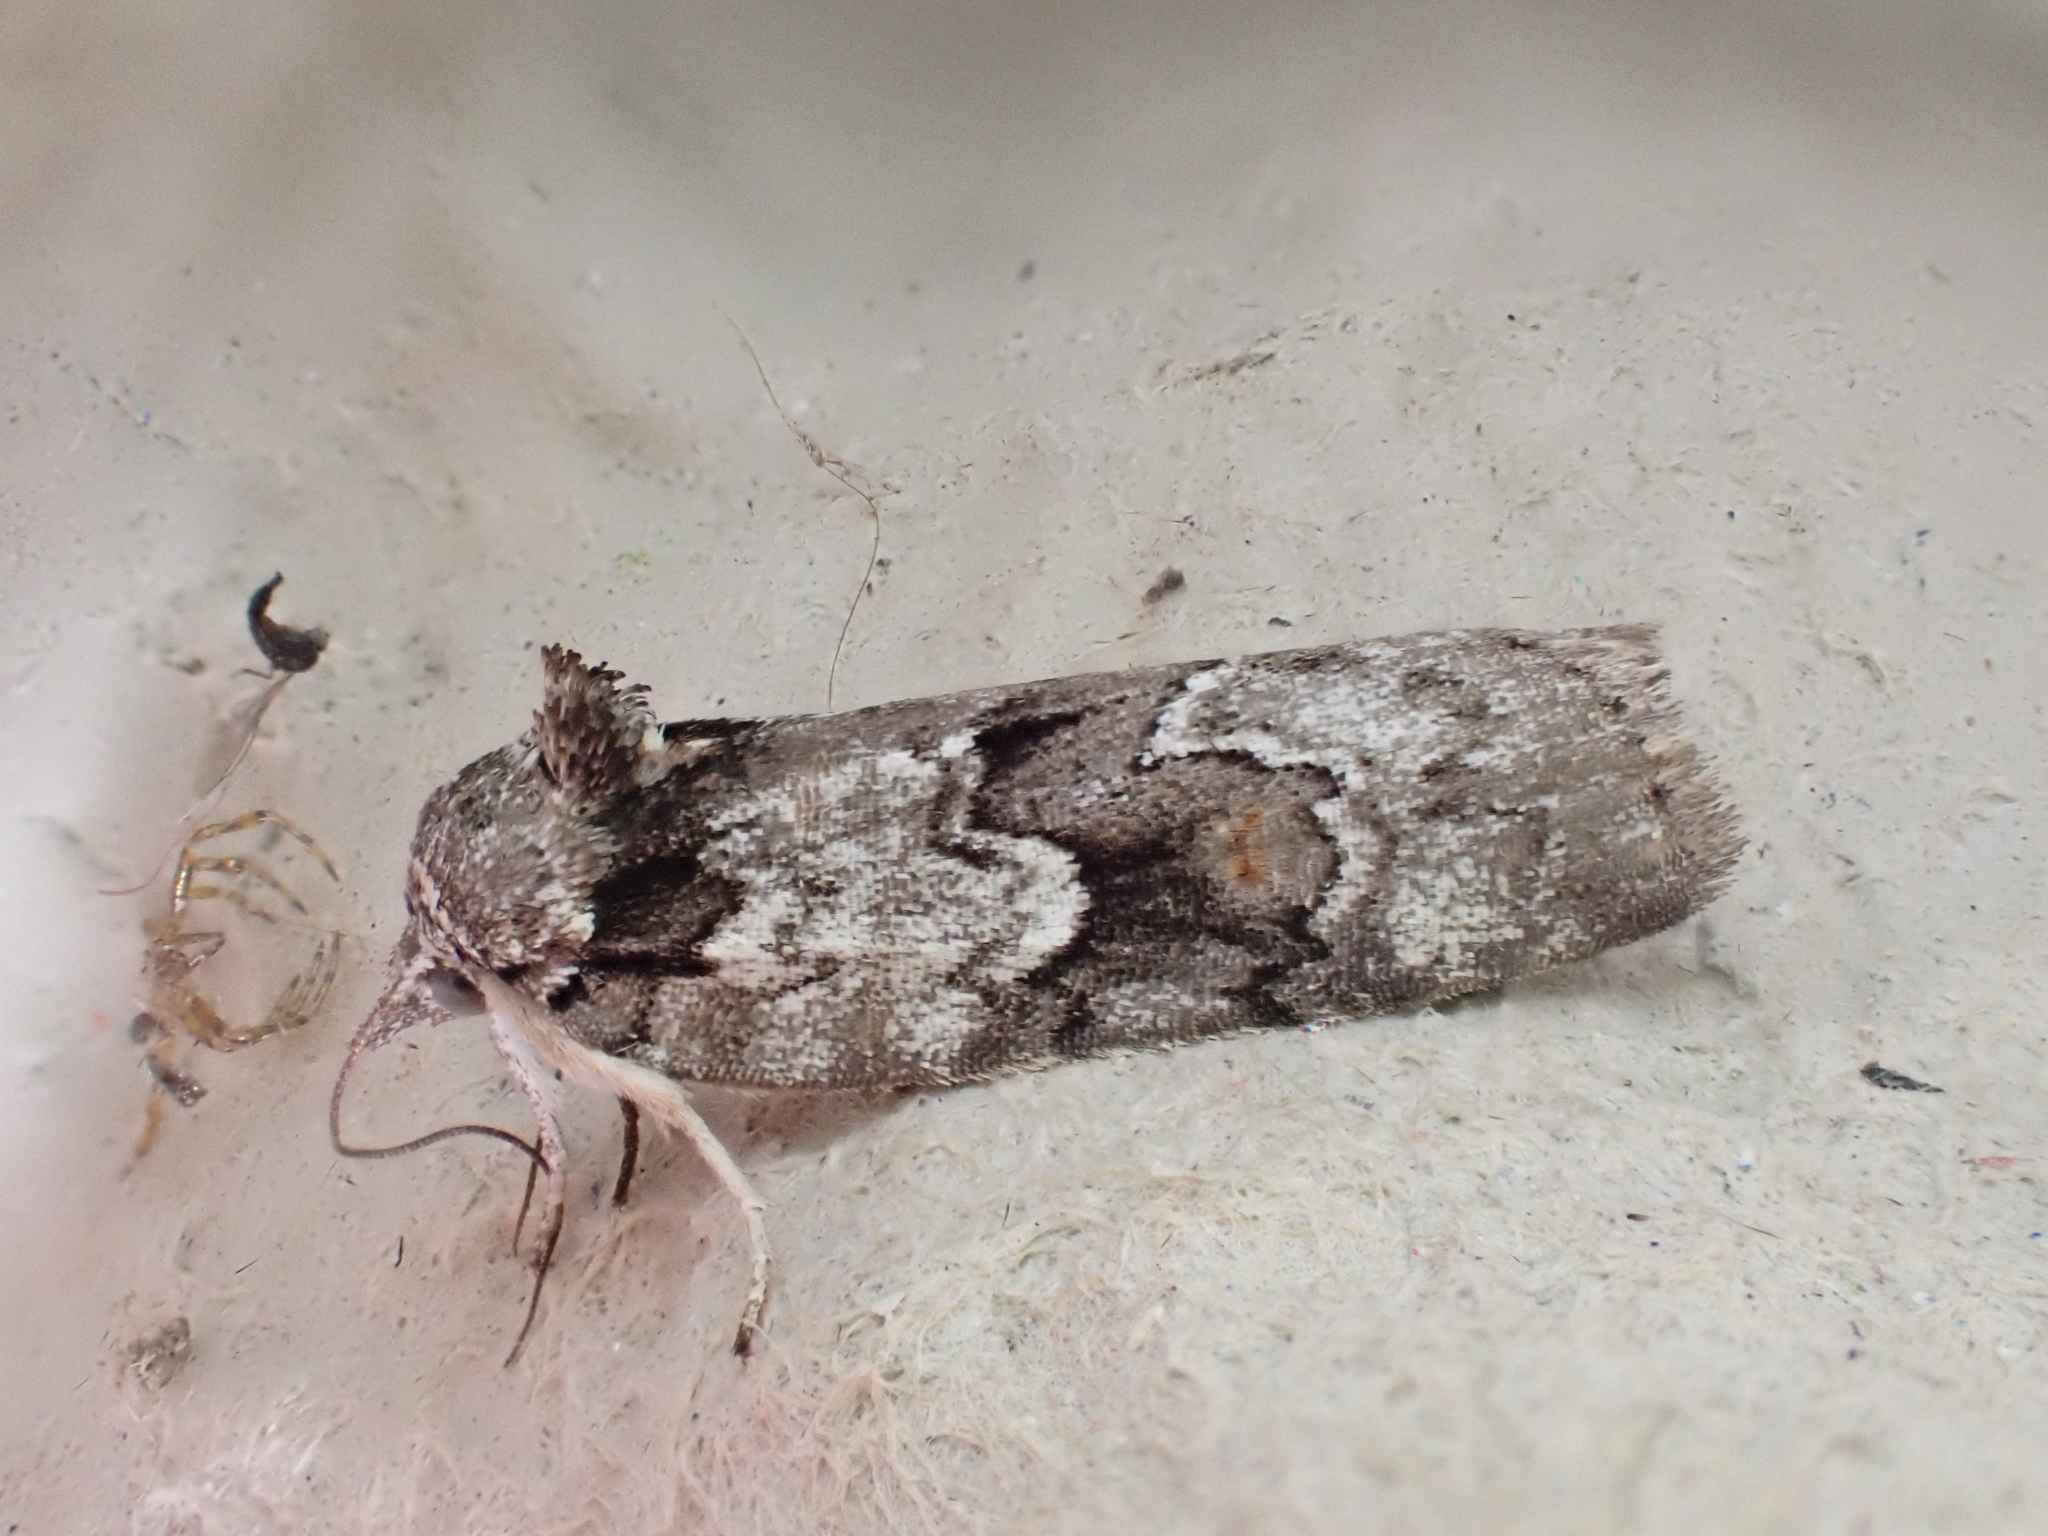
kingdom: Animalia
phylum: Arthropoda
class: Insecta
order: Lepidoptera
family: Nolidae
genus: Nycteola
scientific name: Nycteola degenerana
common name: Swallow nycteoline
